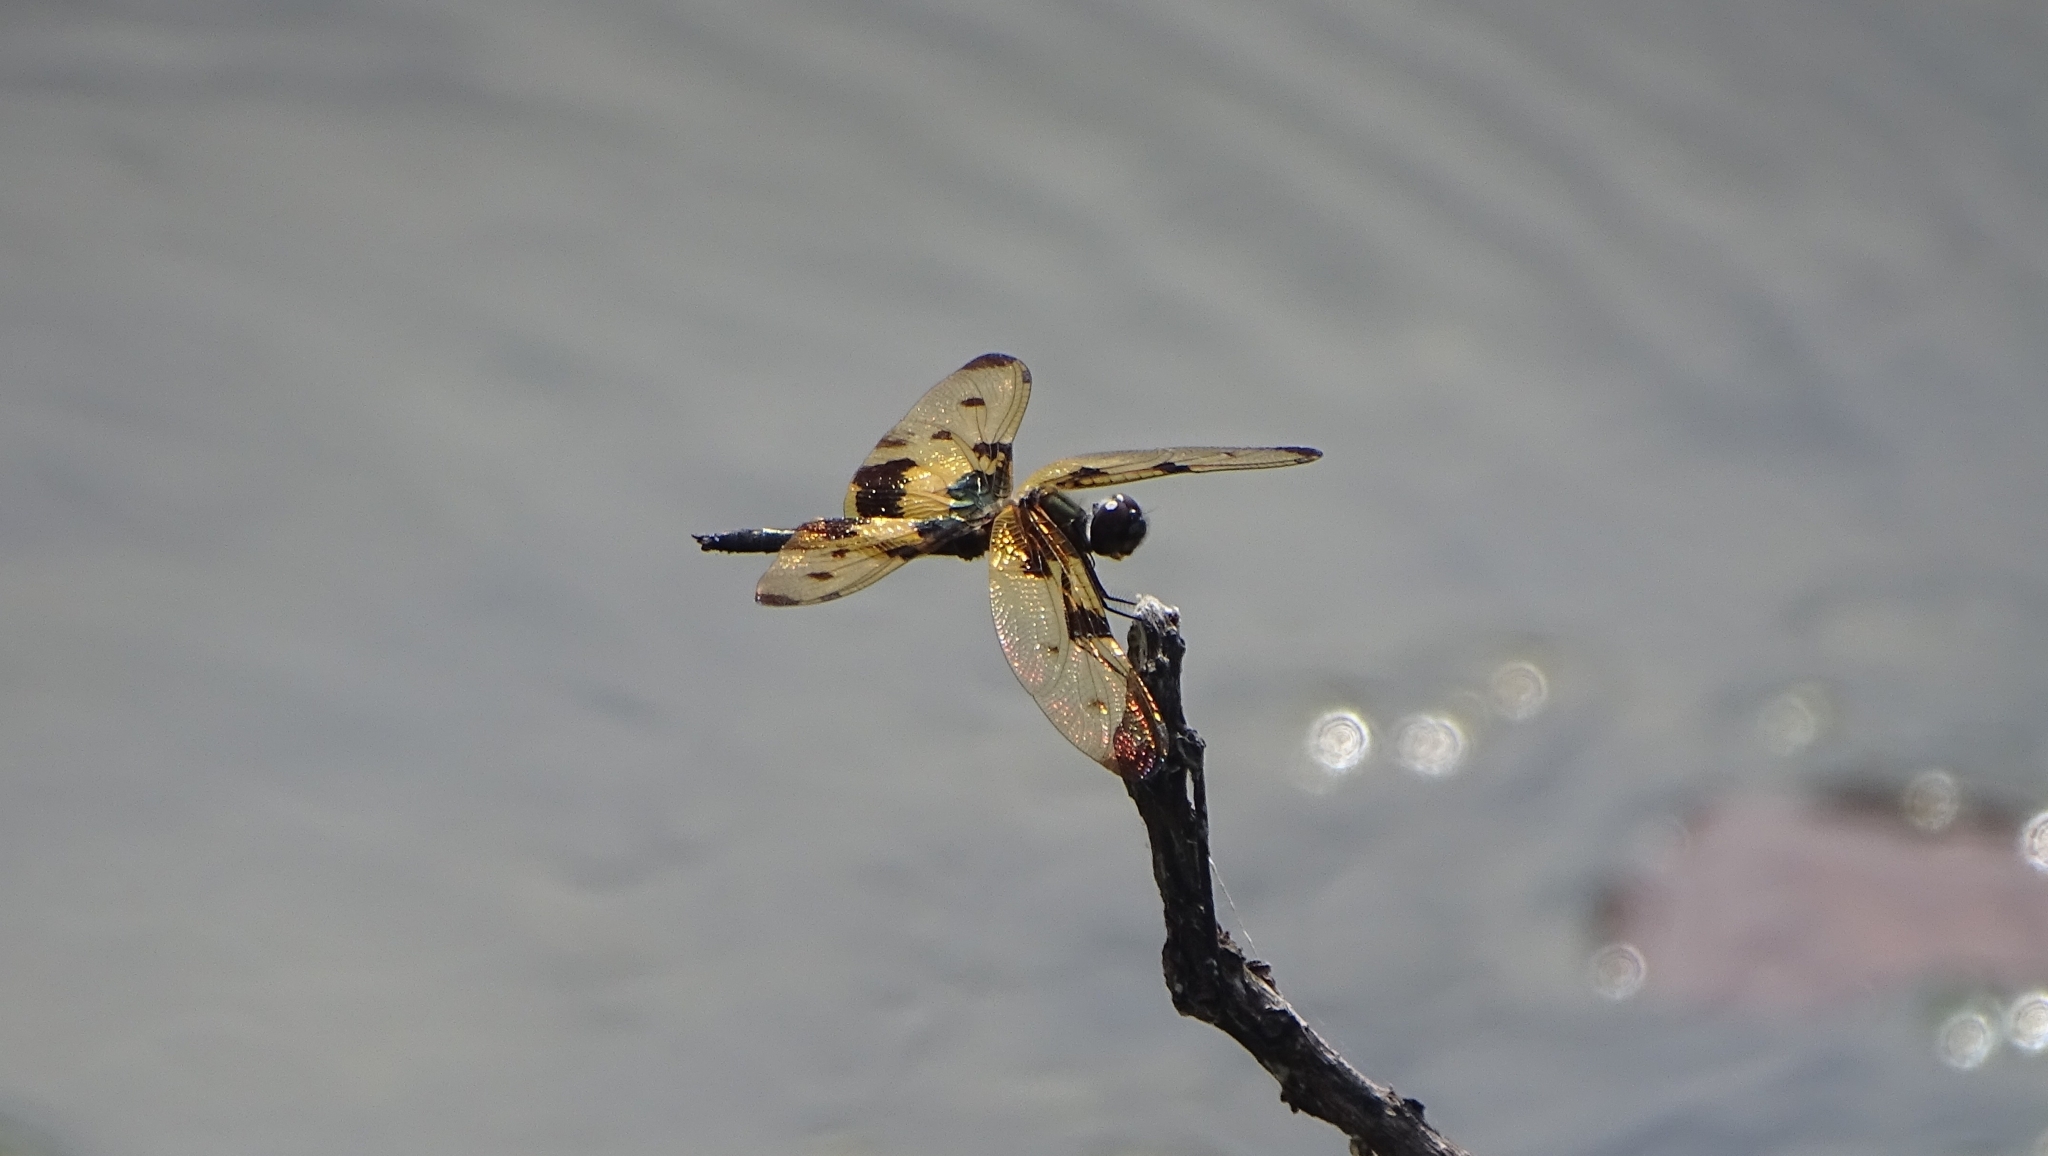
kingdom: Animalia
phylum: Arthropoda
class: Insecta
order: Odonata
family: Libellulidae
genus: Rhyothemis
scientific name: Rhyothemis variegata
